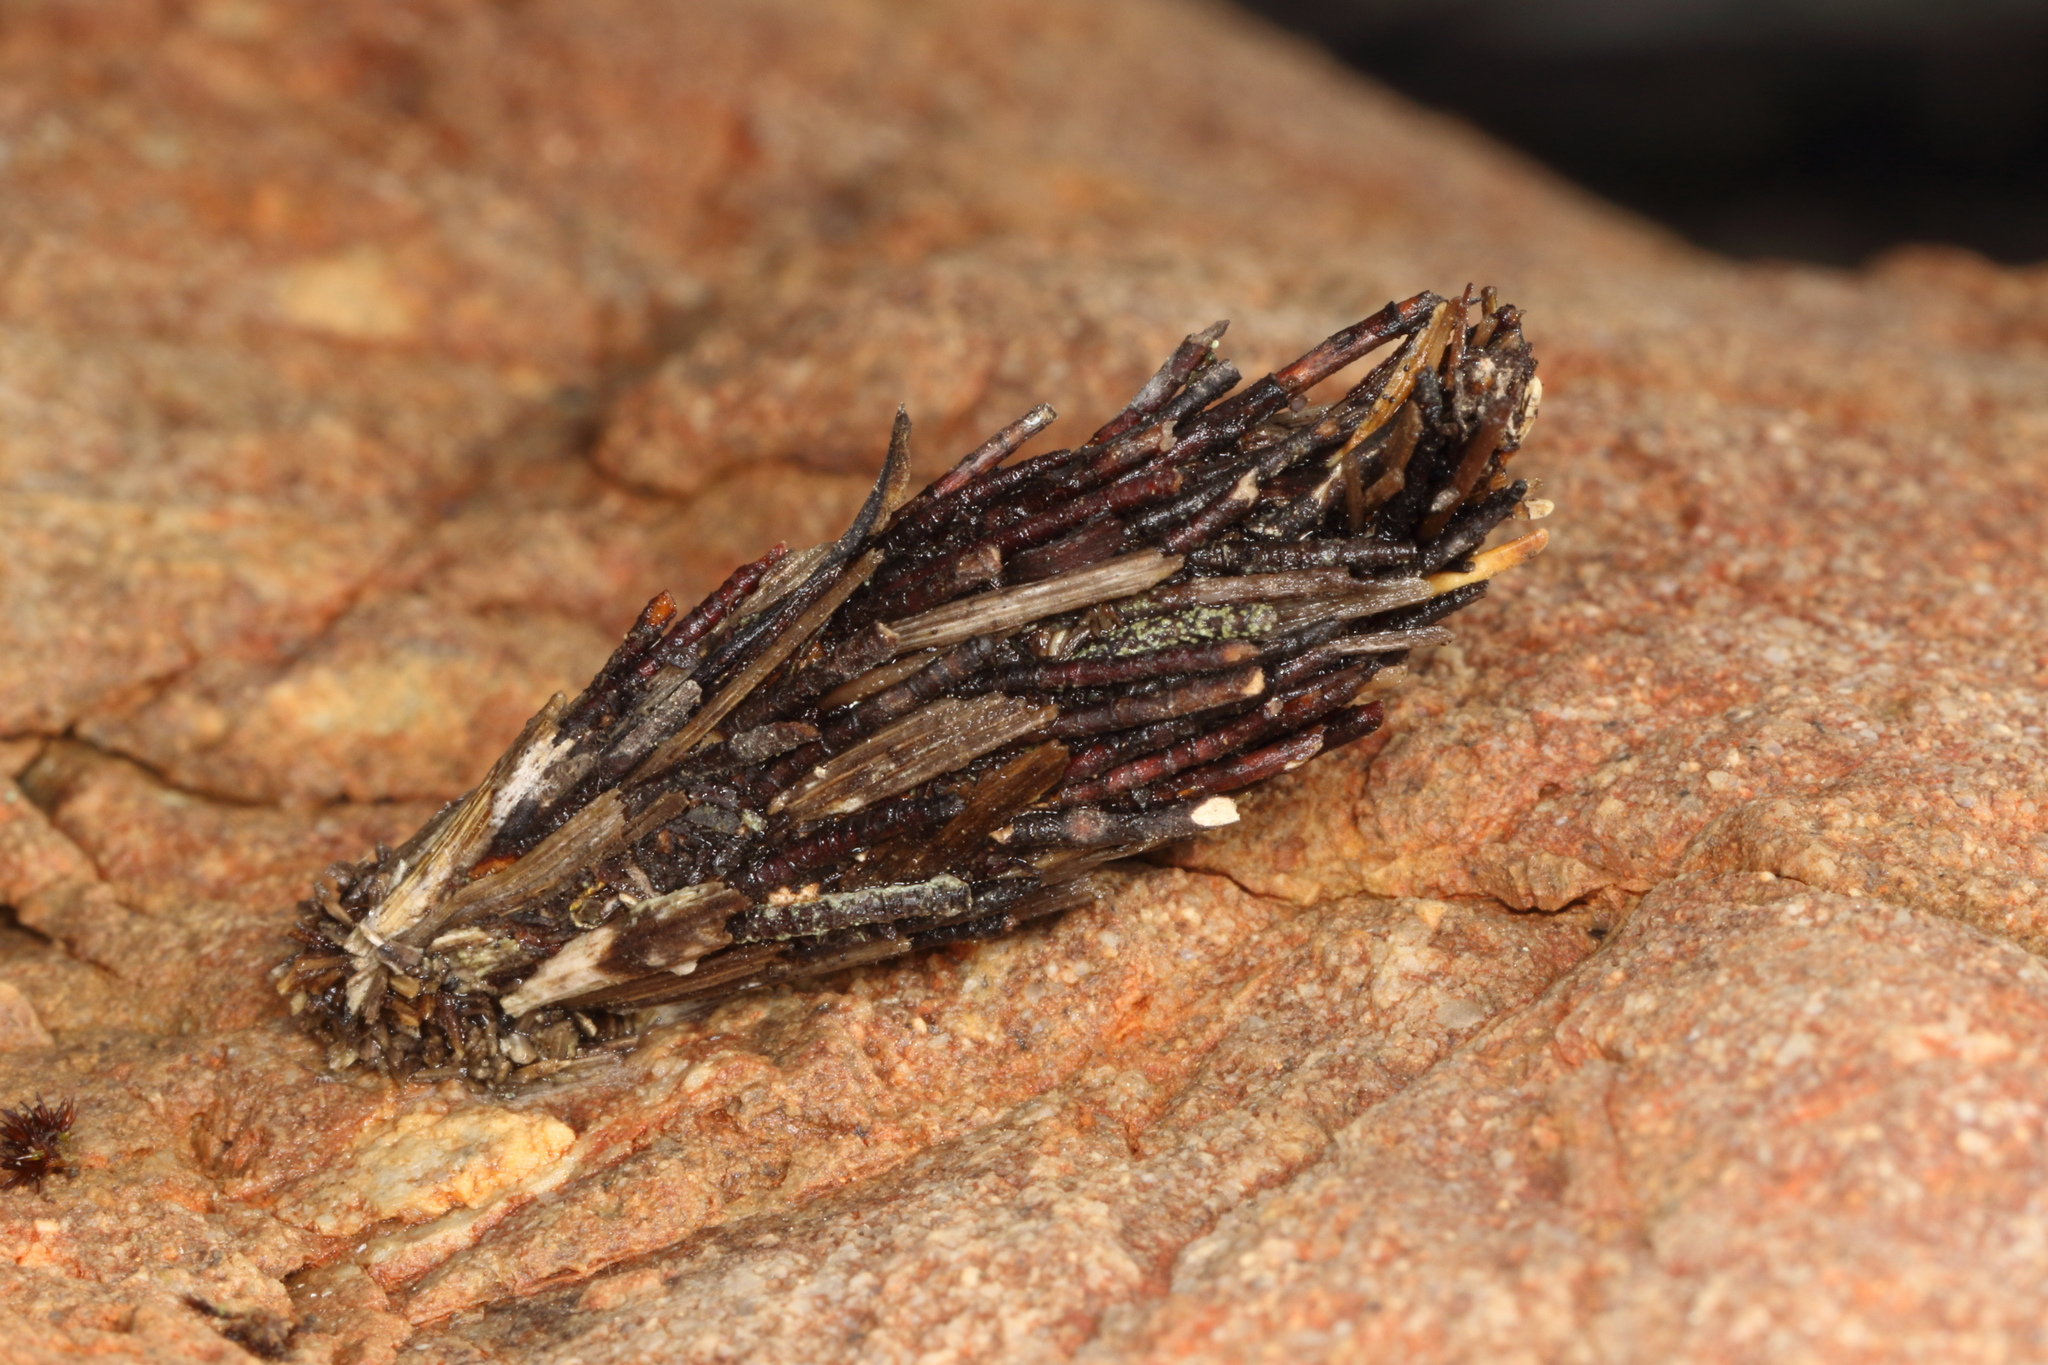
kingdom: Animalia
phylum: Arthropoda
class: Insecta
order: Lepidoptera
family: Psychidae
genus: Orophora
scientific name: Orophora unicolor
